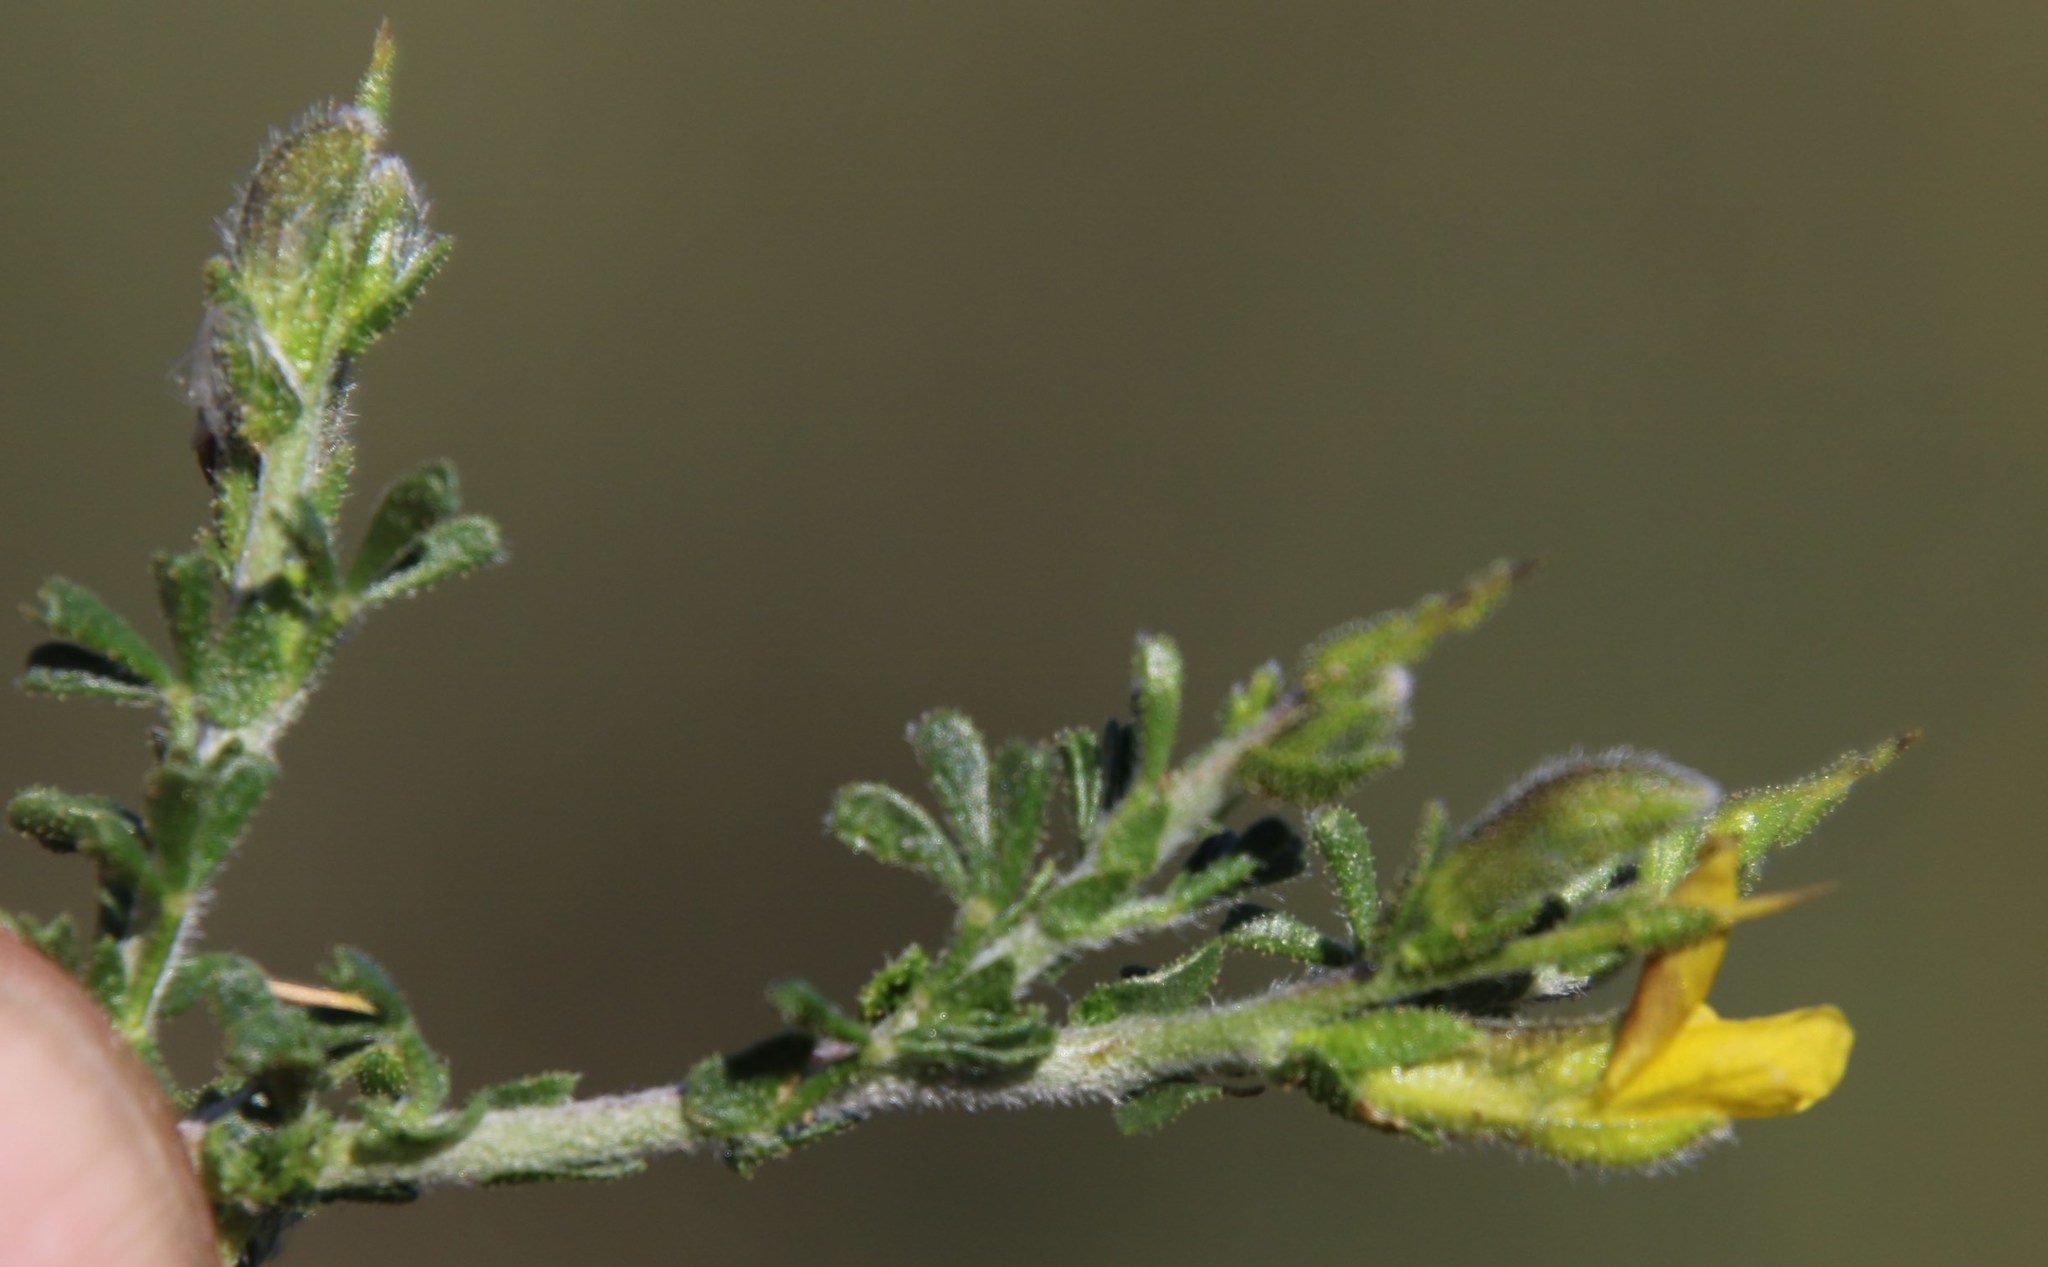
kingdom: Plantae
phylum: Tracheophyta
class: Magnoliopsida
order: Fabales
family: Fabaceae
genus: Melolobium
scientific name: Melolobium microphyllum
